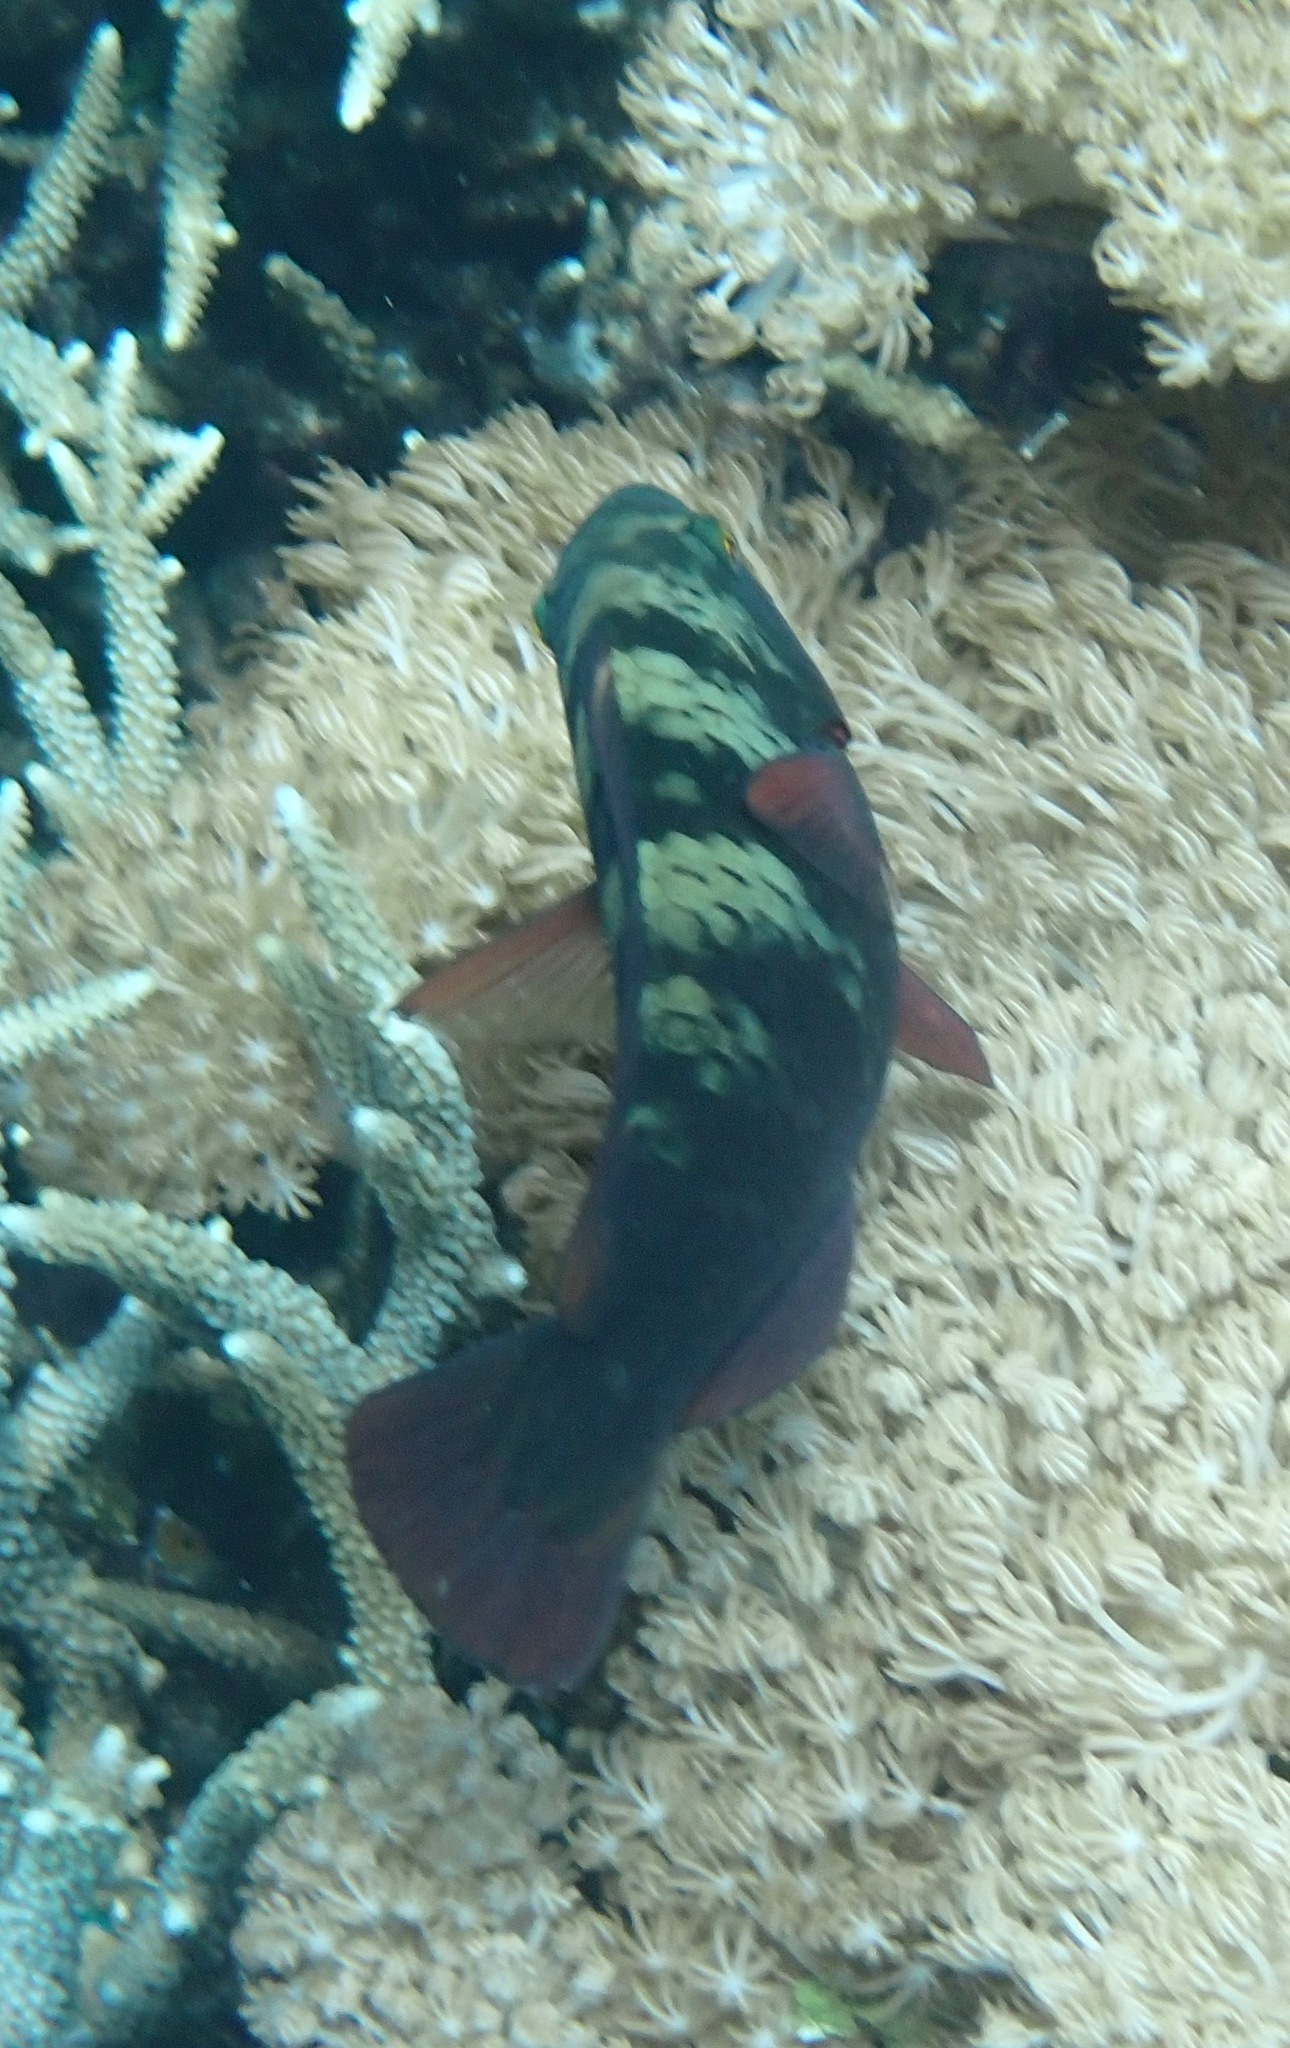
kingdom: Animalia
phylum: Chordata
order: Perciformes
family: Scaridae
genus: Chlorurus
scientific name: Chlorurus bleekeri
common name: Bleeker's parrotfish
